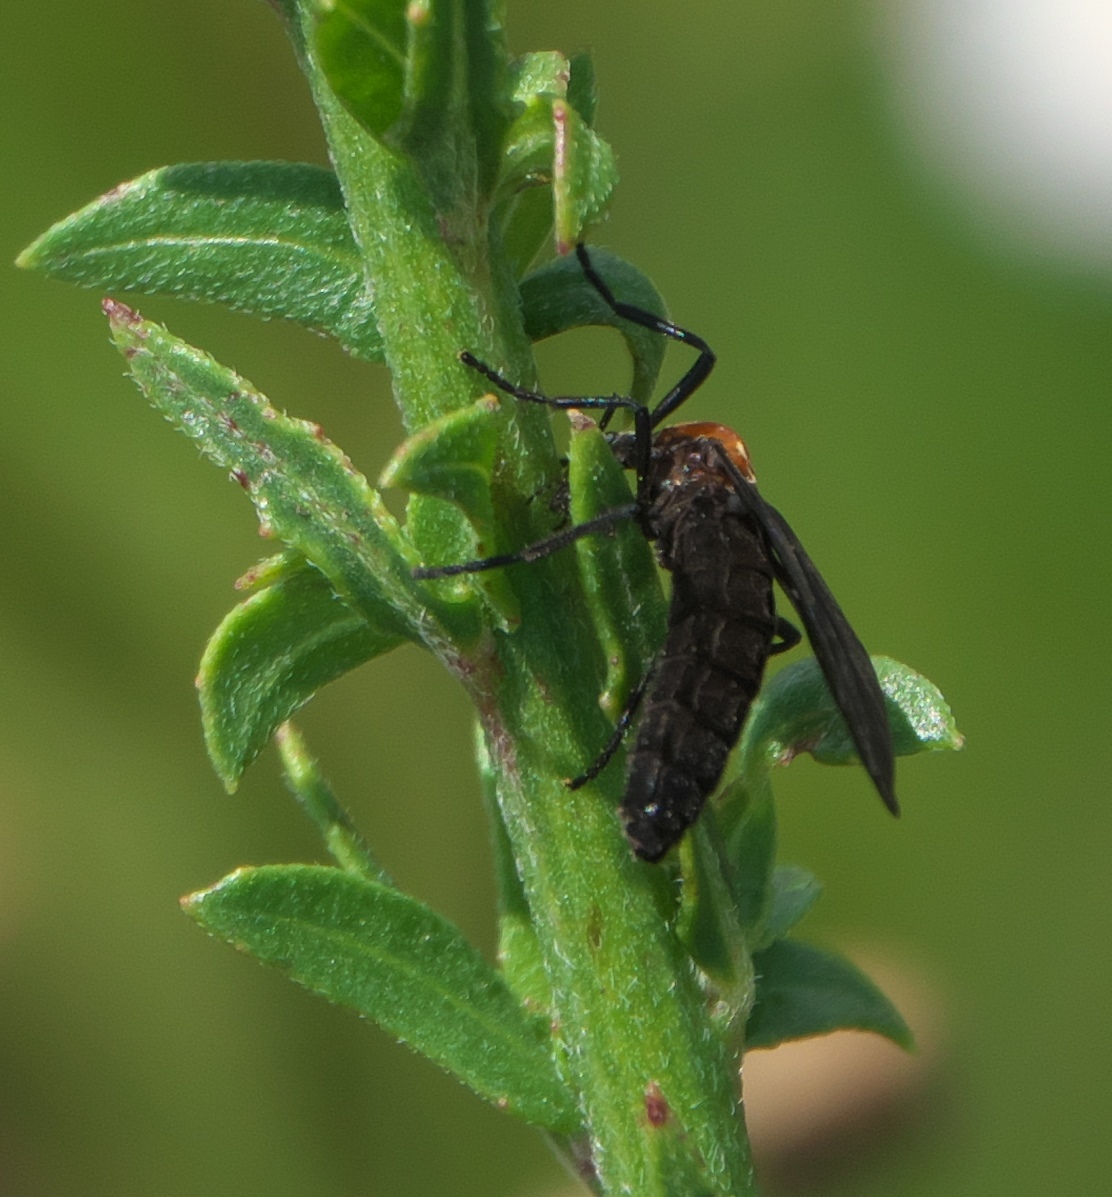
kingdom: Animalia
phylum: Arthropoda
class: Insecta
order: Diptera
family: Bibionidae
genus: Plecia
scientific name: Plecia nearctica
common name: March fly
